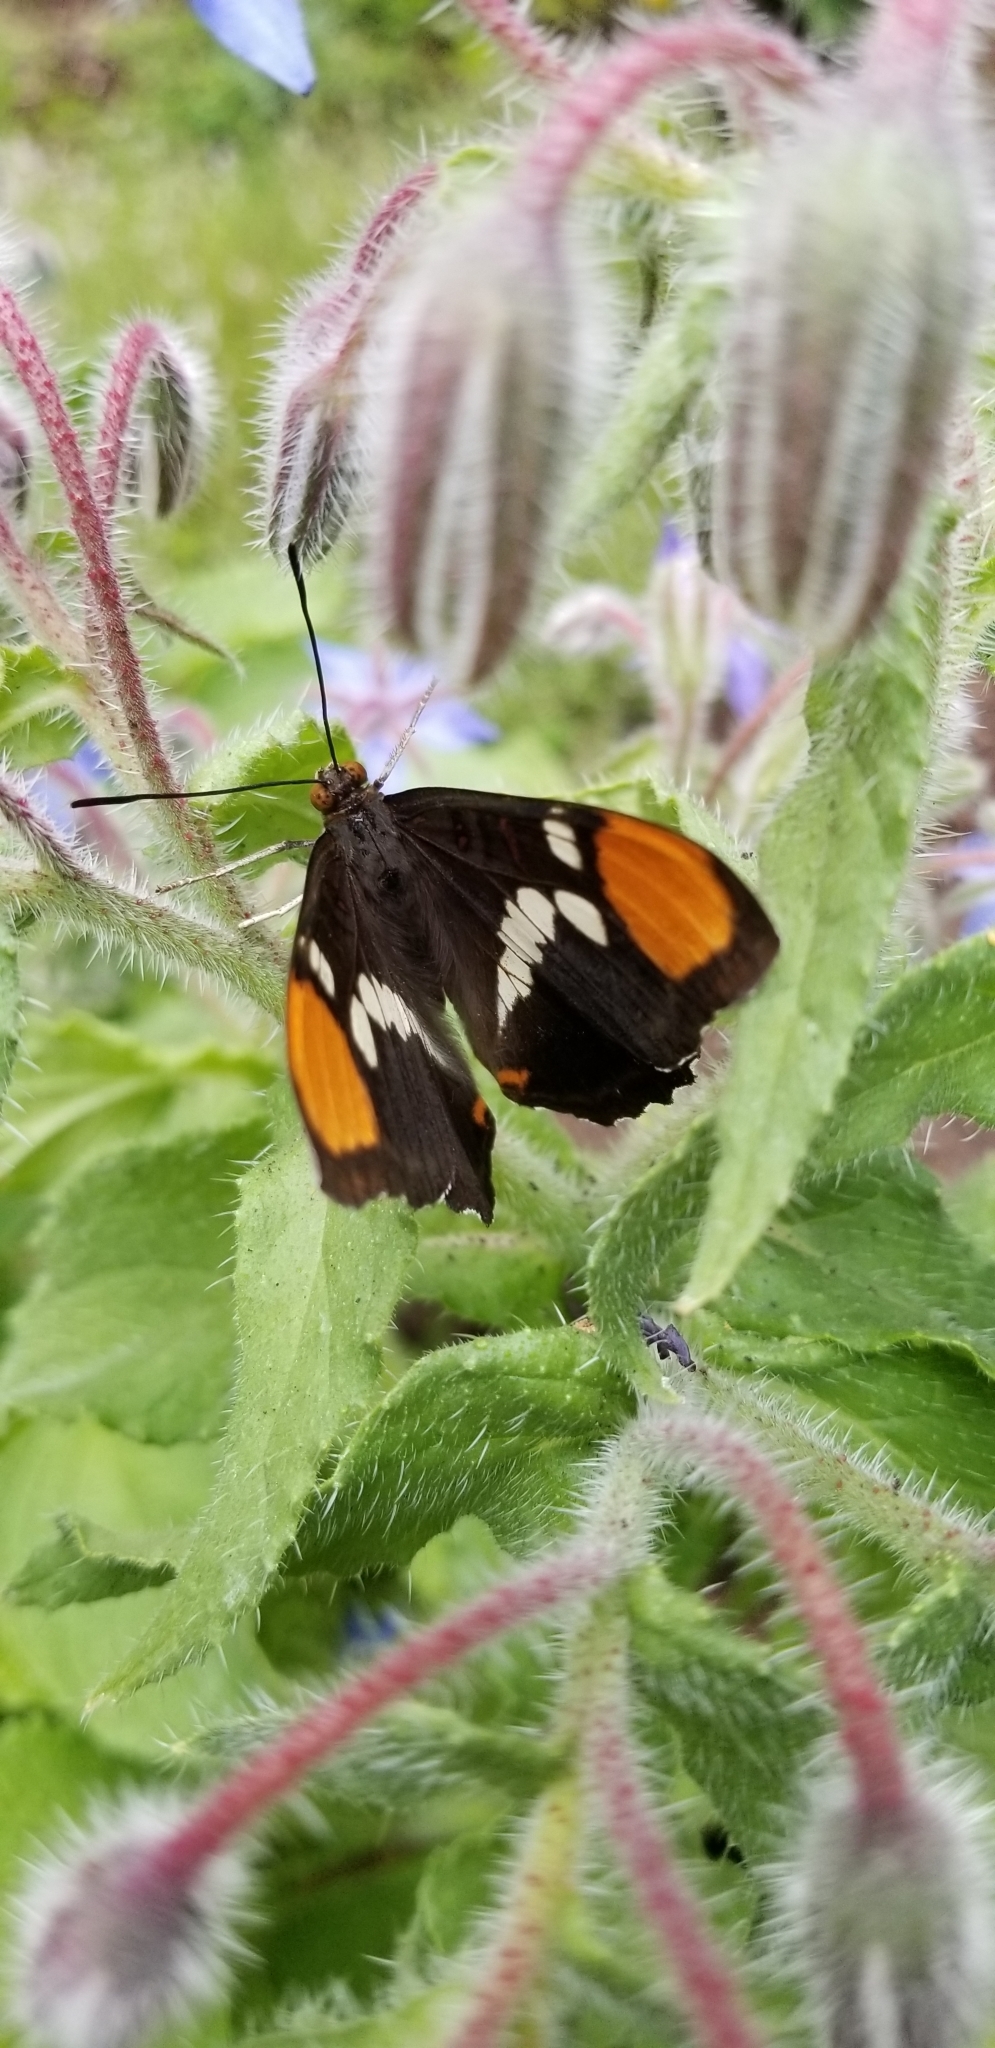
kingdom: Animalia
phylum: Arthropoda
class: Insecta
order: Lepidoptera
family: Nymphalidae
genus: Limenitis
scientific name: Limenitis bredowii
